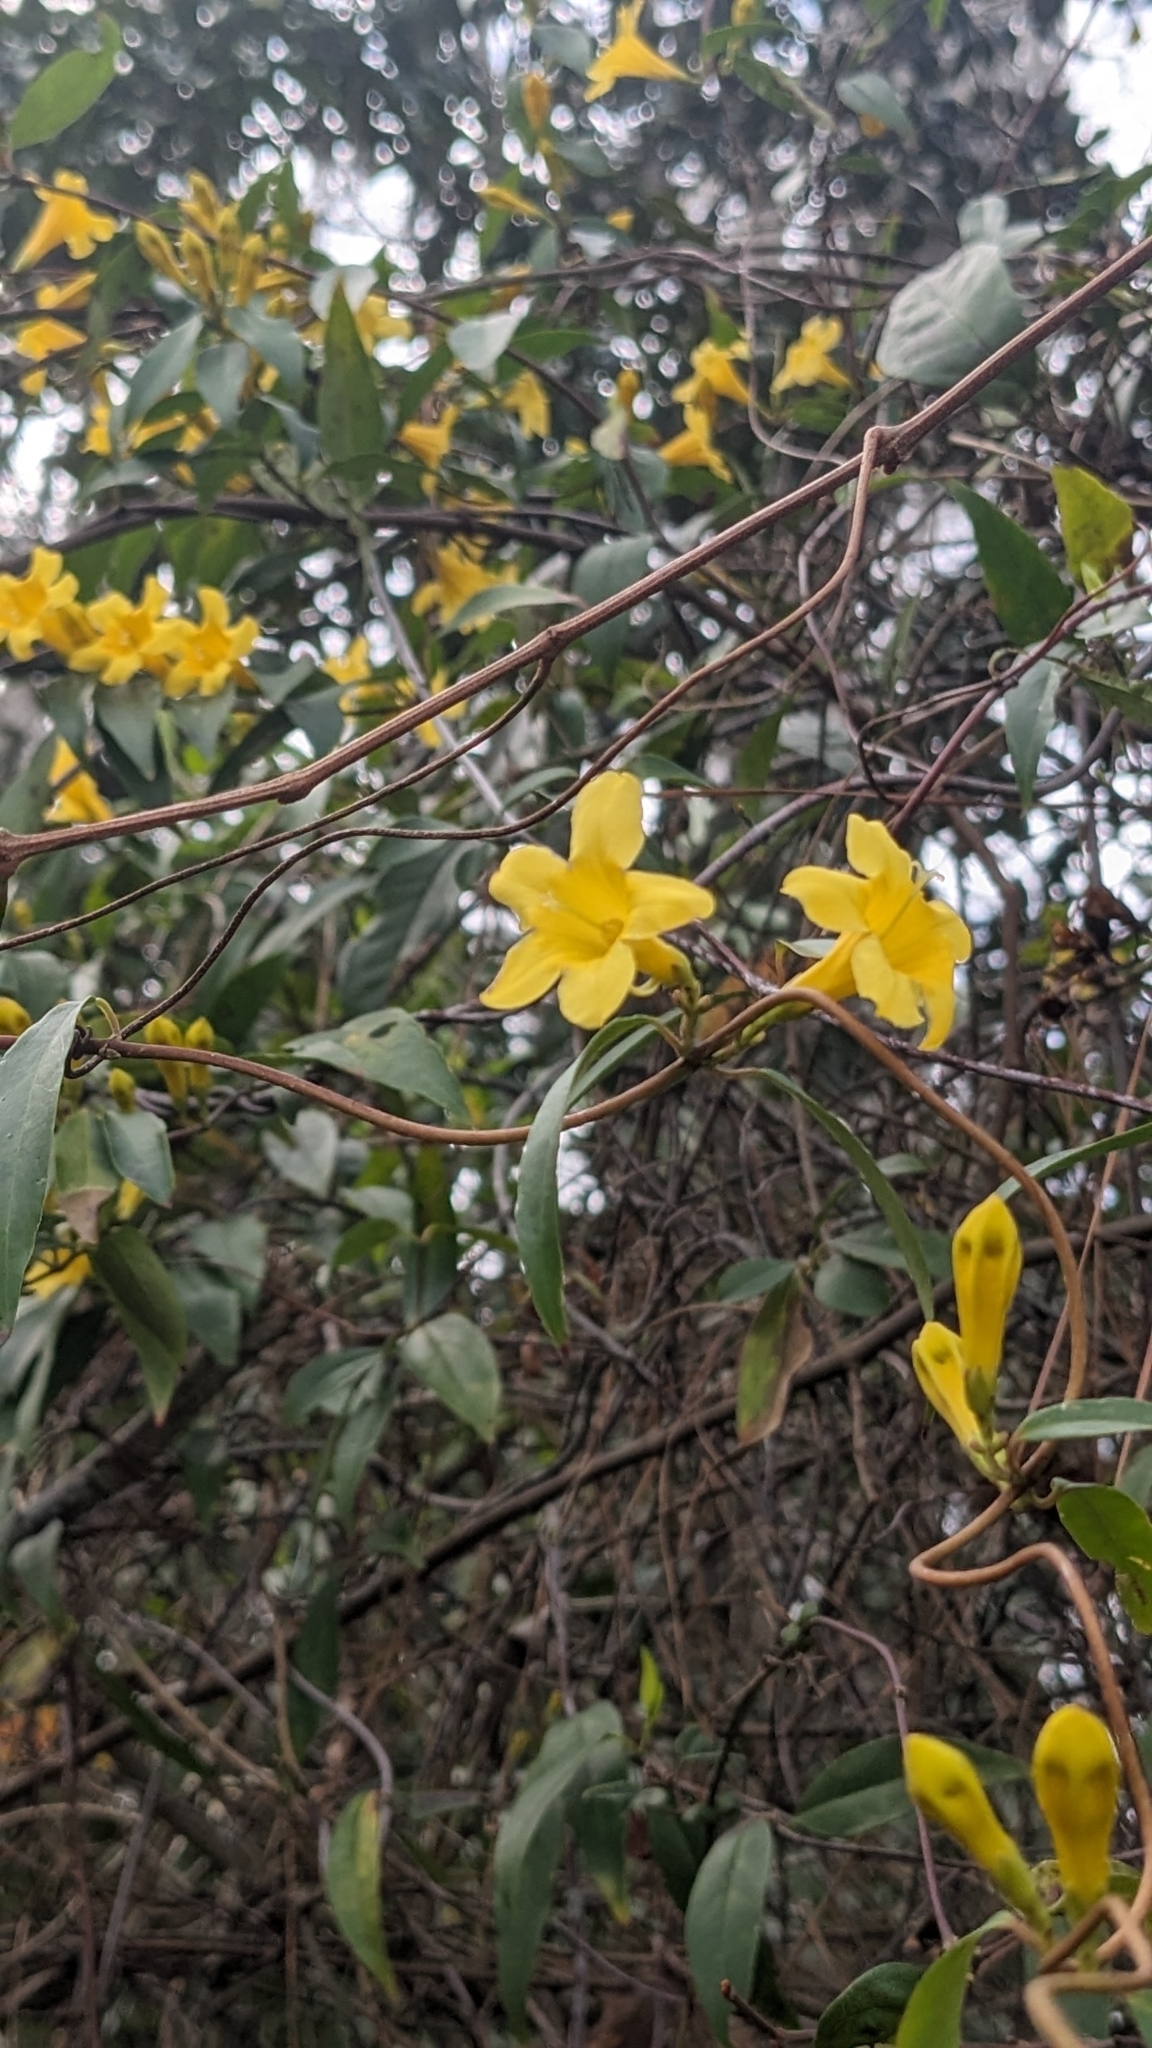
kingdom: Plantae
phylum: Tracheophyta
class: Magnoliopsida
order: Gentianales
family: Gelsemiaceae
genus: Gelsemium
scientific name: Gelsemium sempervirens
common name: Carolina-jasmine
